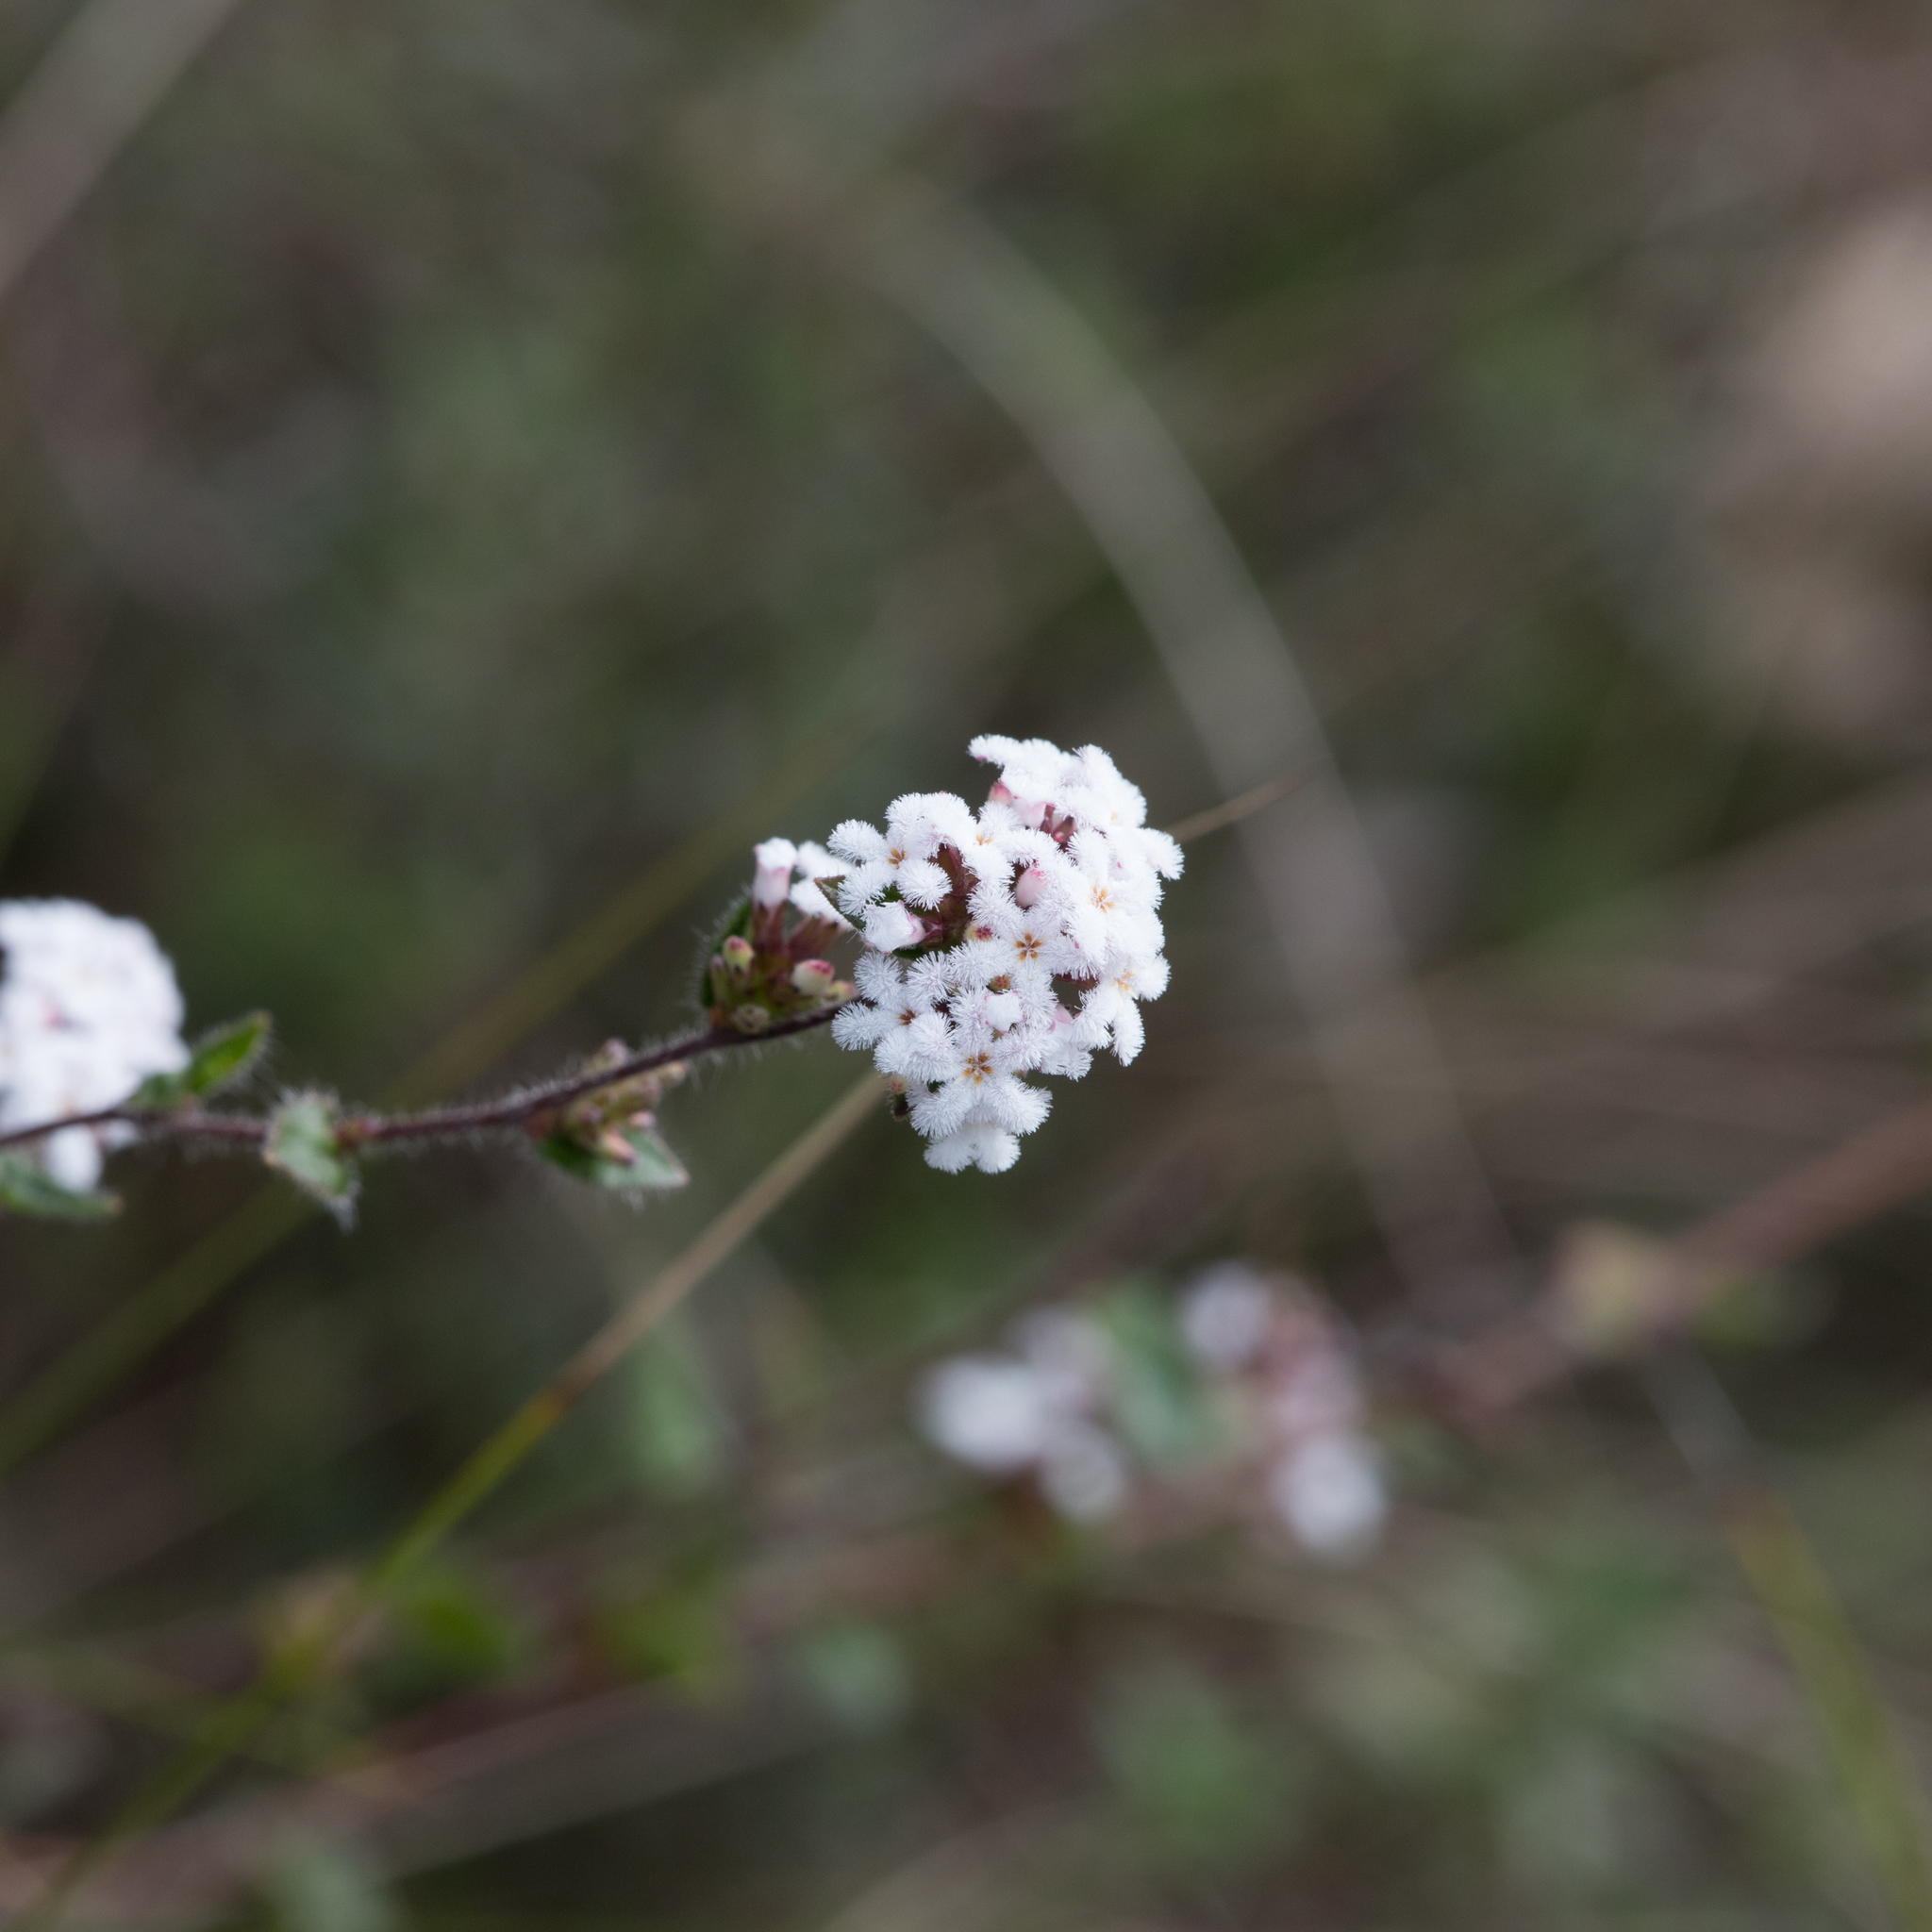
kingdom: Plantae
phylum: Tracheophyta
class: Magnoliopsida
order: Ericales
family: Ericaceae
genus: Leucopogon
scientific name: Leucopogon concurvus
